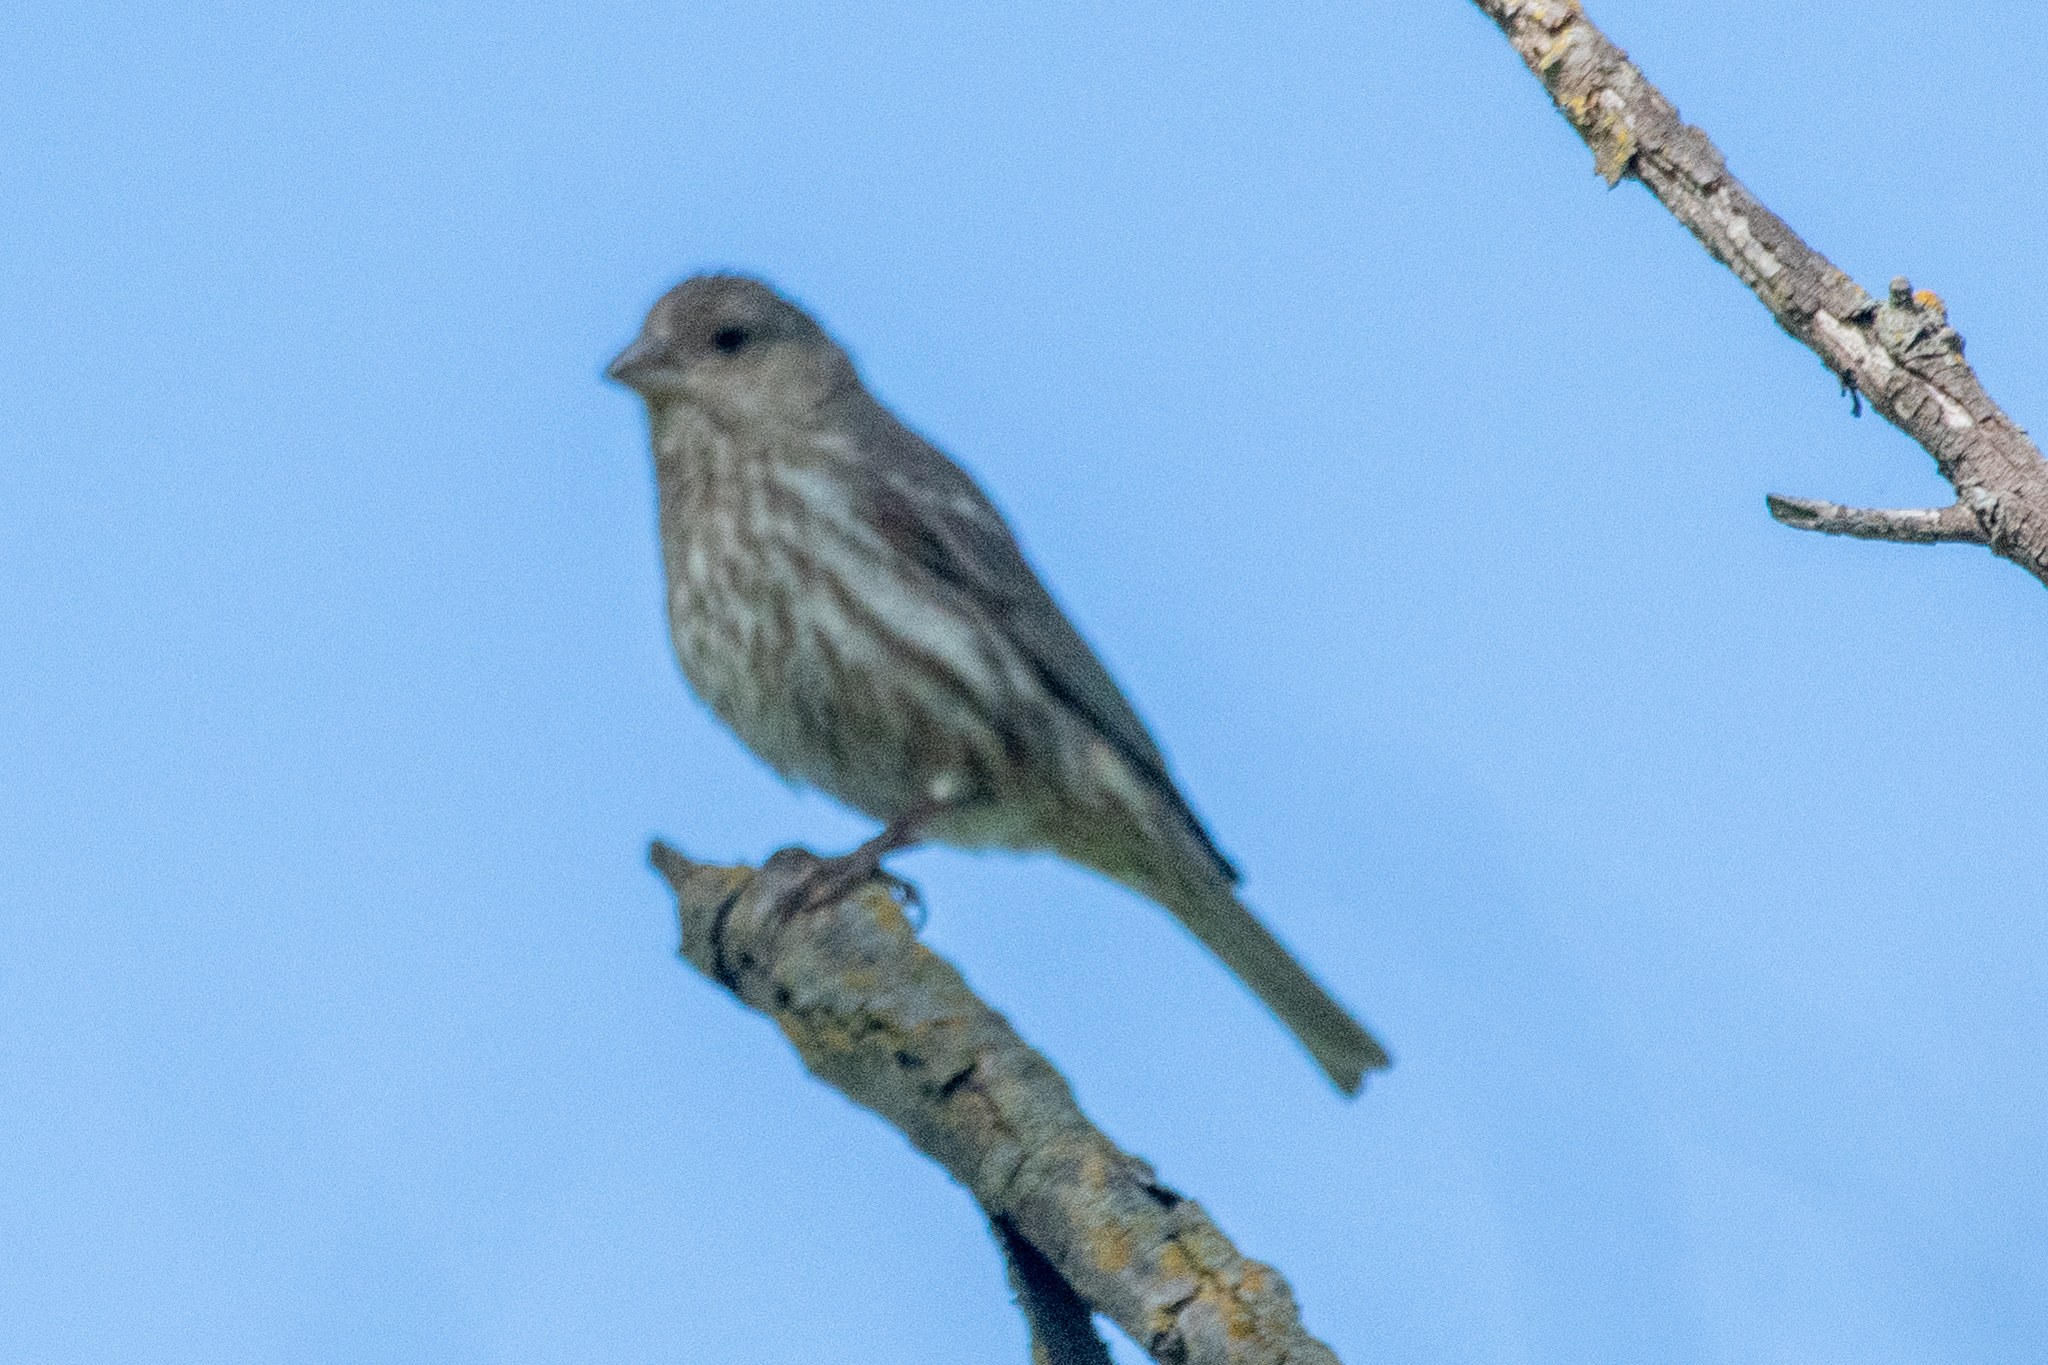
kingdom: Animalia
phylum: Chordata
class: Aves
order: Passeriformes
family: Fringillidae
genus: Haemorhous
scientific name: Haemorhous mexicanus
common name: House finch
